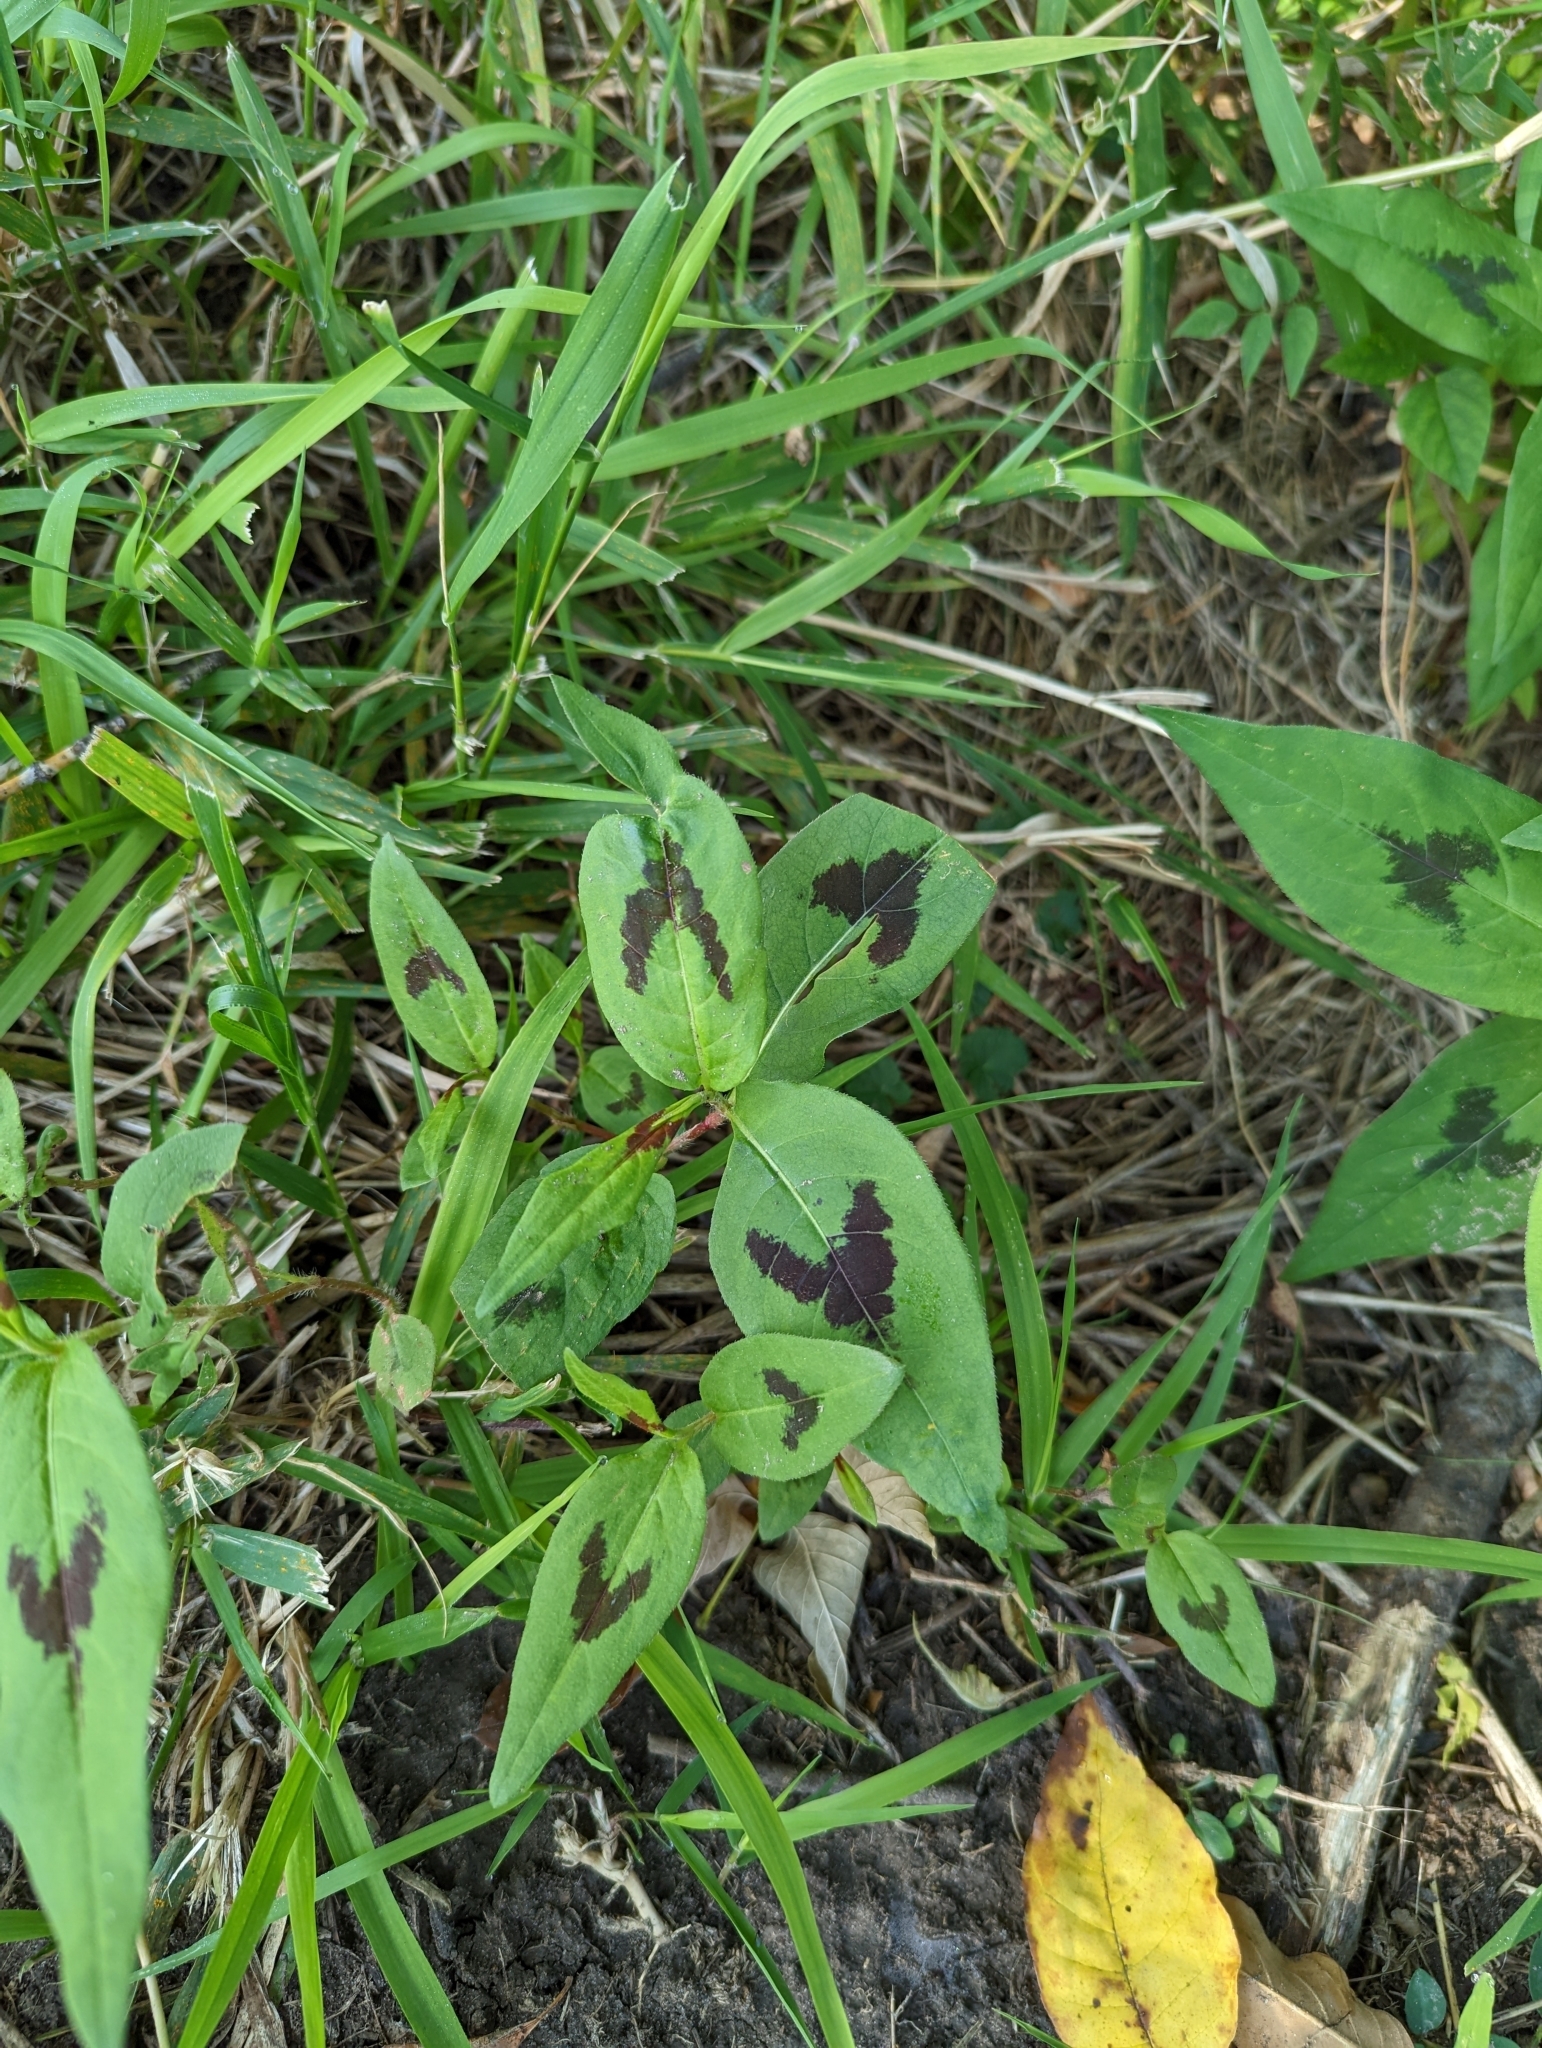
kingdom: Plantae
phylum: Tracheophyta
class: Magnoliopsida
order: Caryophyllales
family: Polygonaceae
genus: Persicaria
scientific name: Persicaria virginiana
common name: Jumpseed
